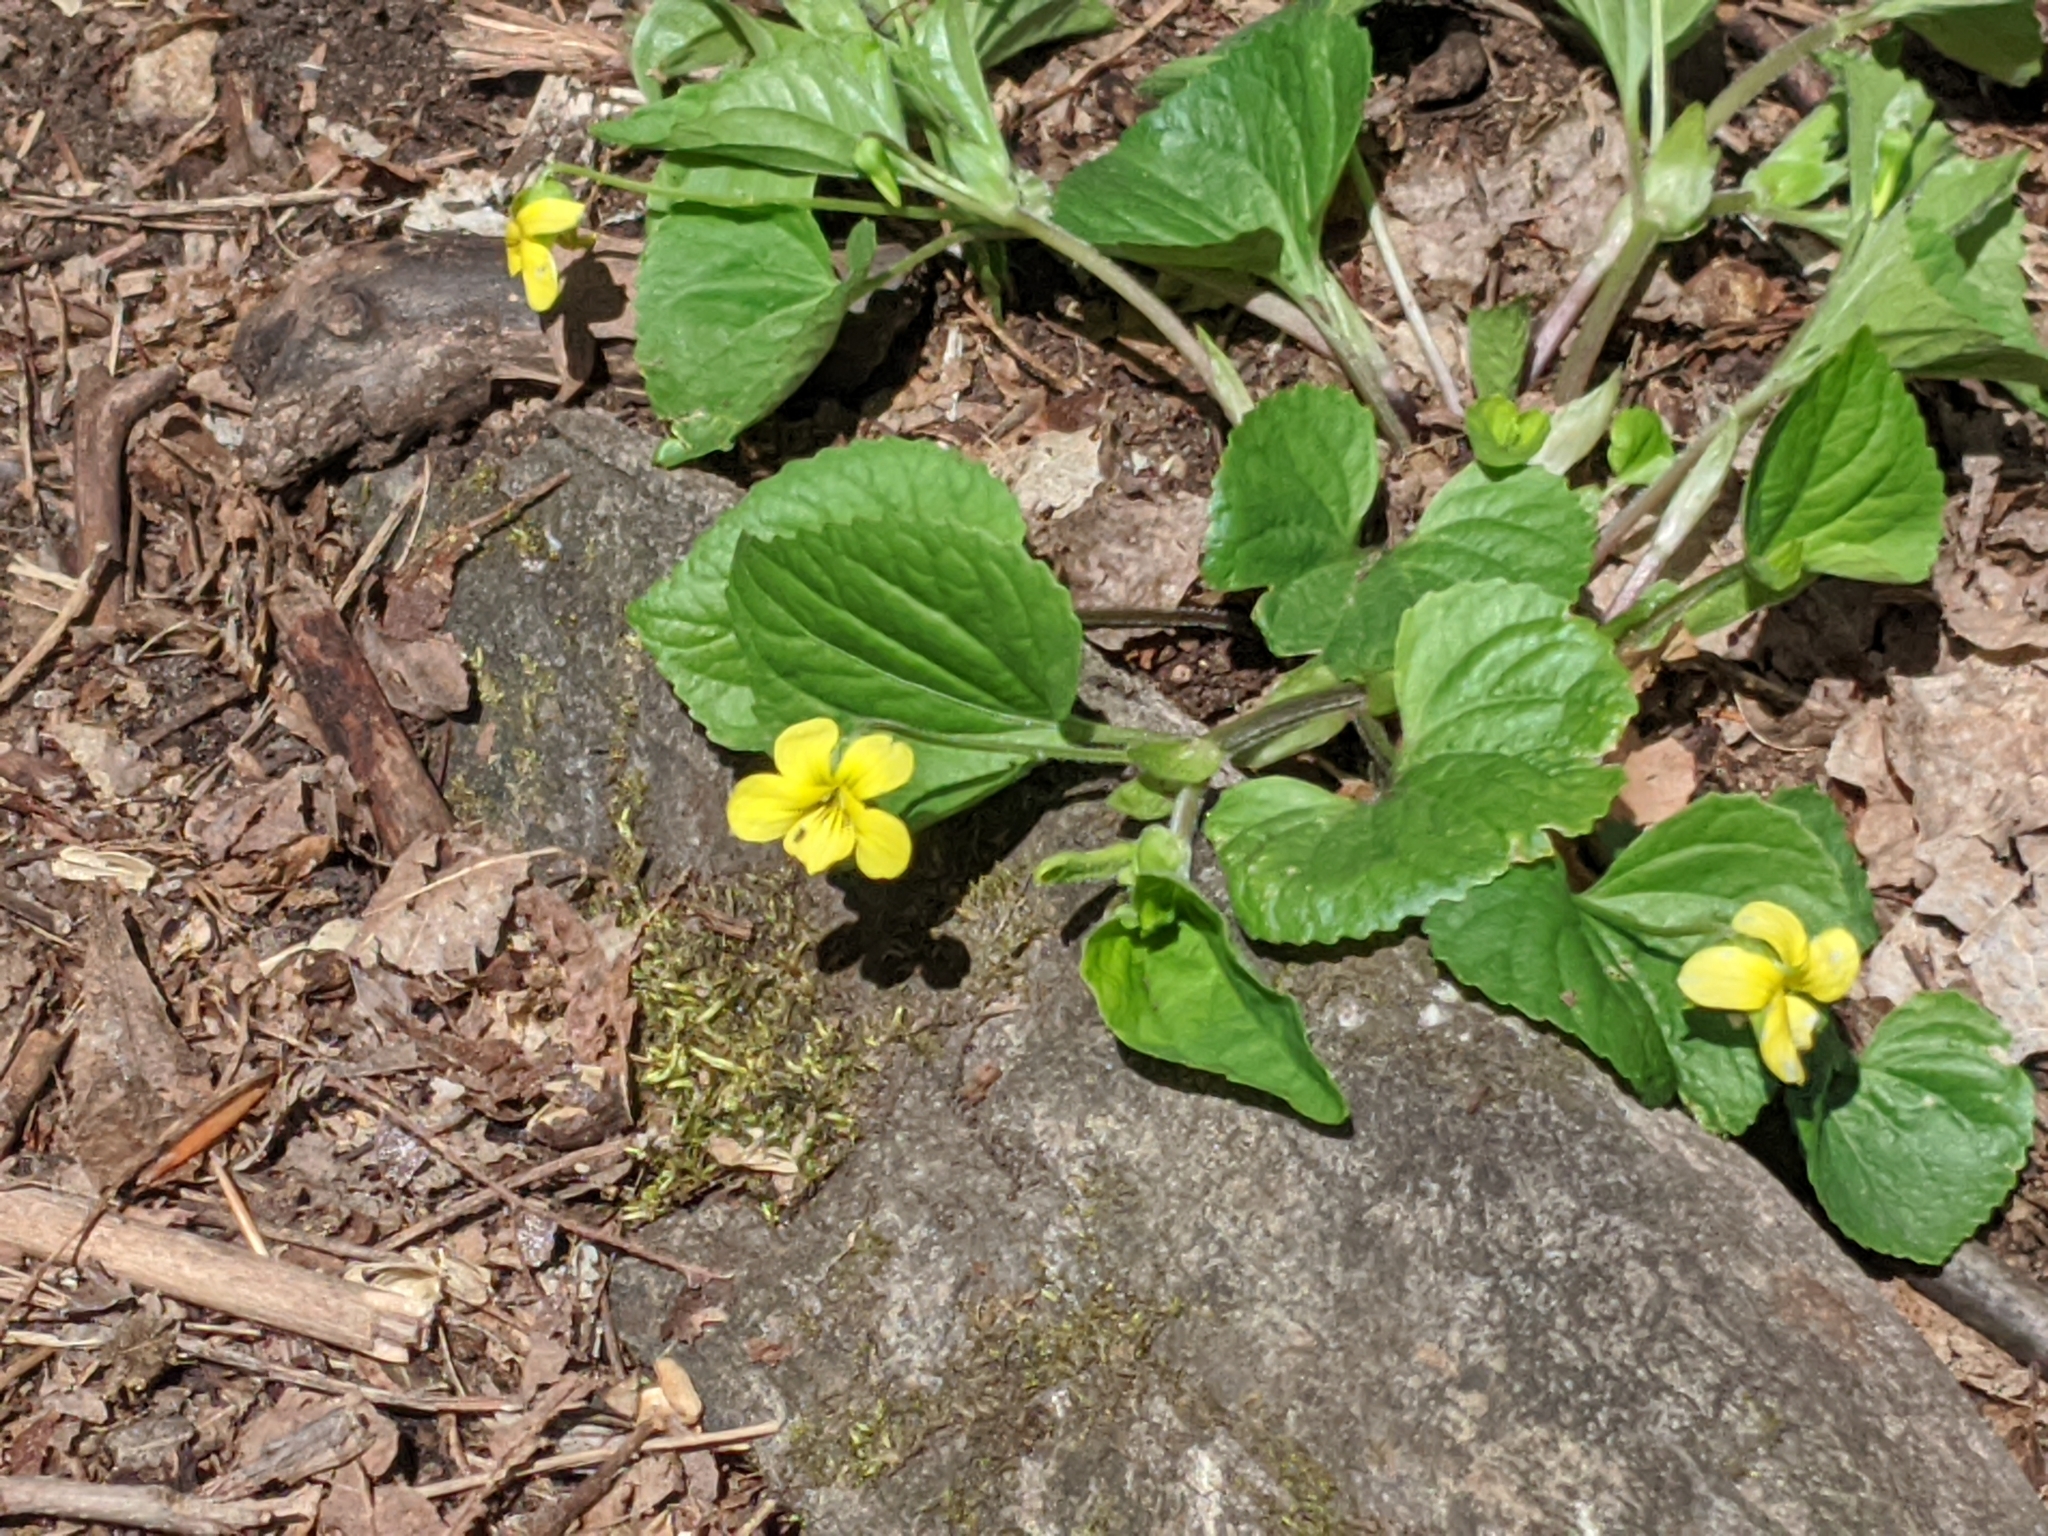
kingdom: Plantae
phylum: Tracheophyta
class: Magnoliopsida
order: Malpighiales
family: Violaceae
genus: Viola
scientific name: Viola eriocarpa
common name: Smooth yellow violet
